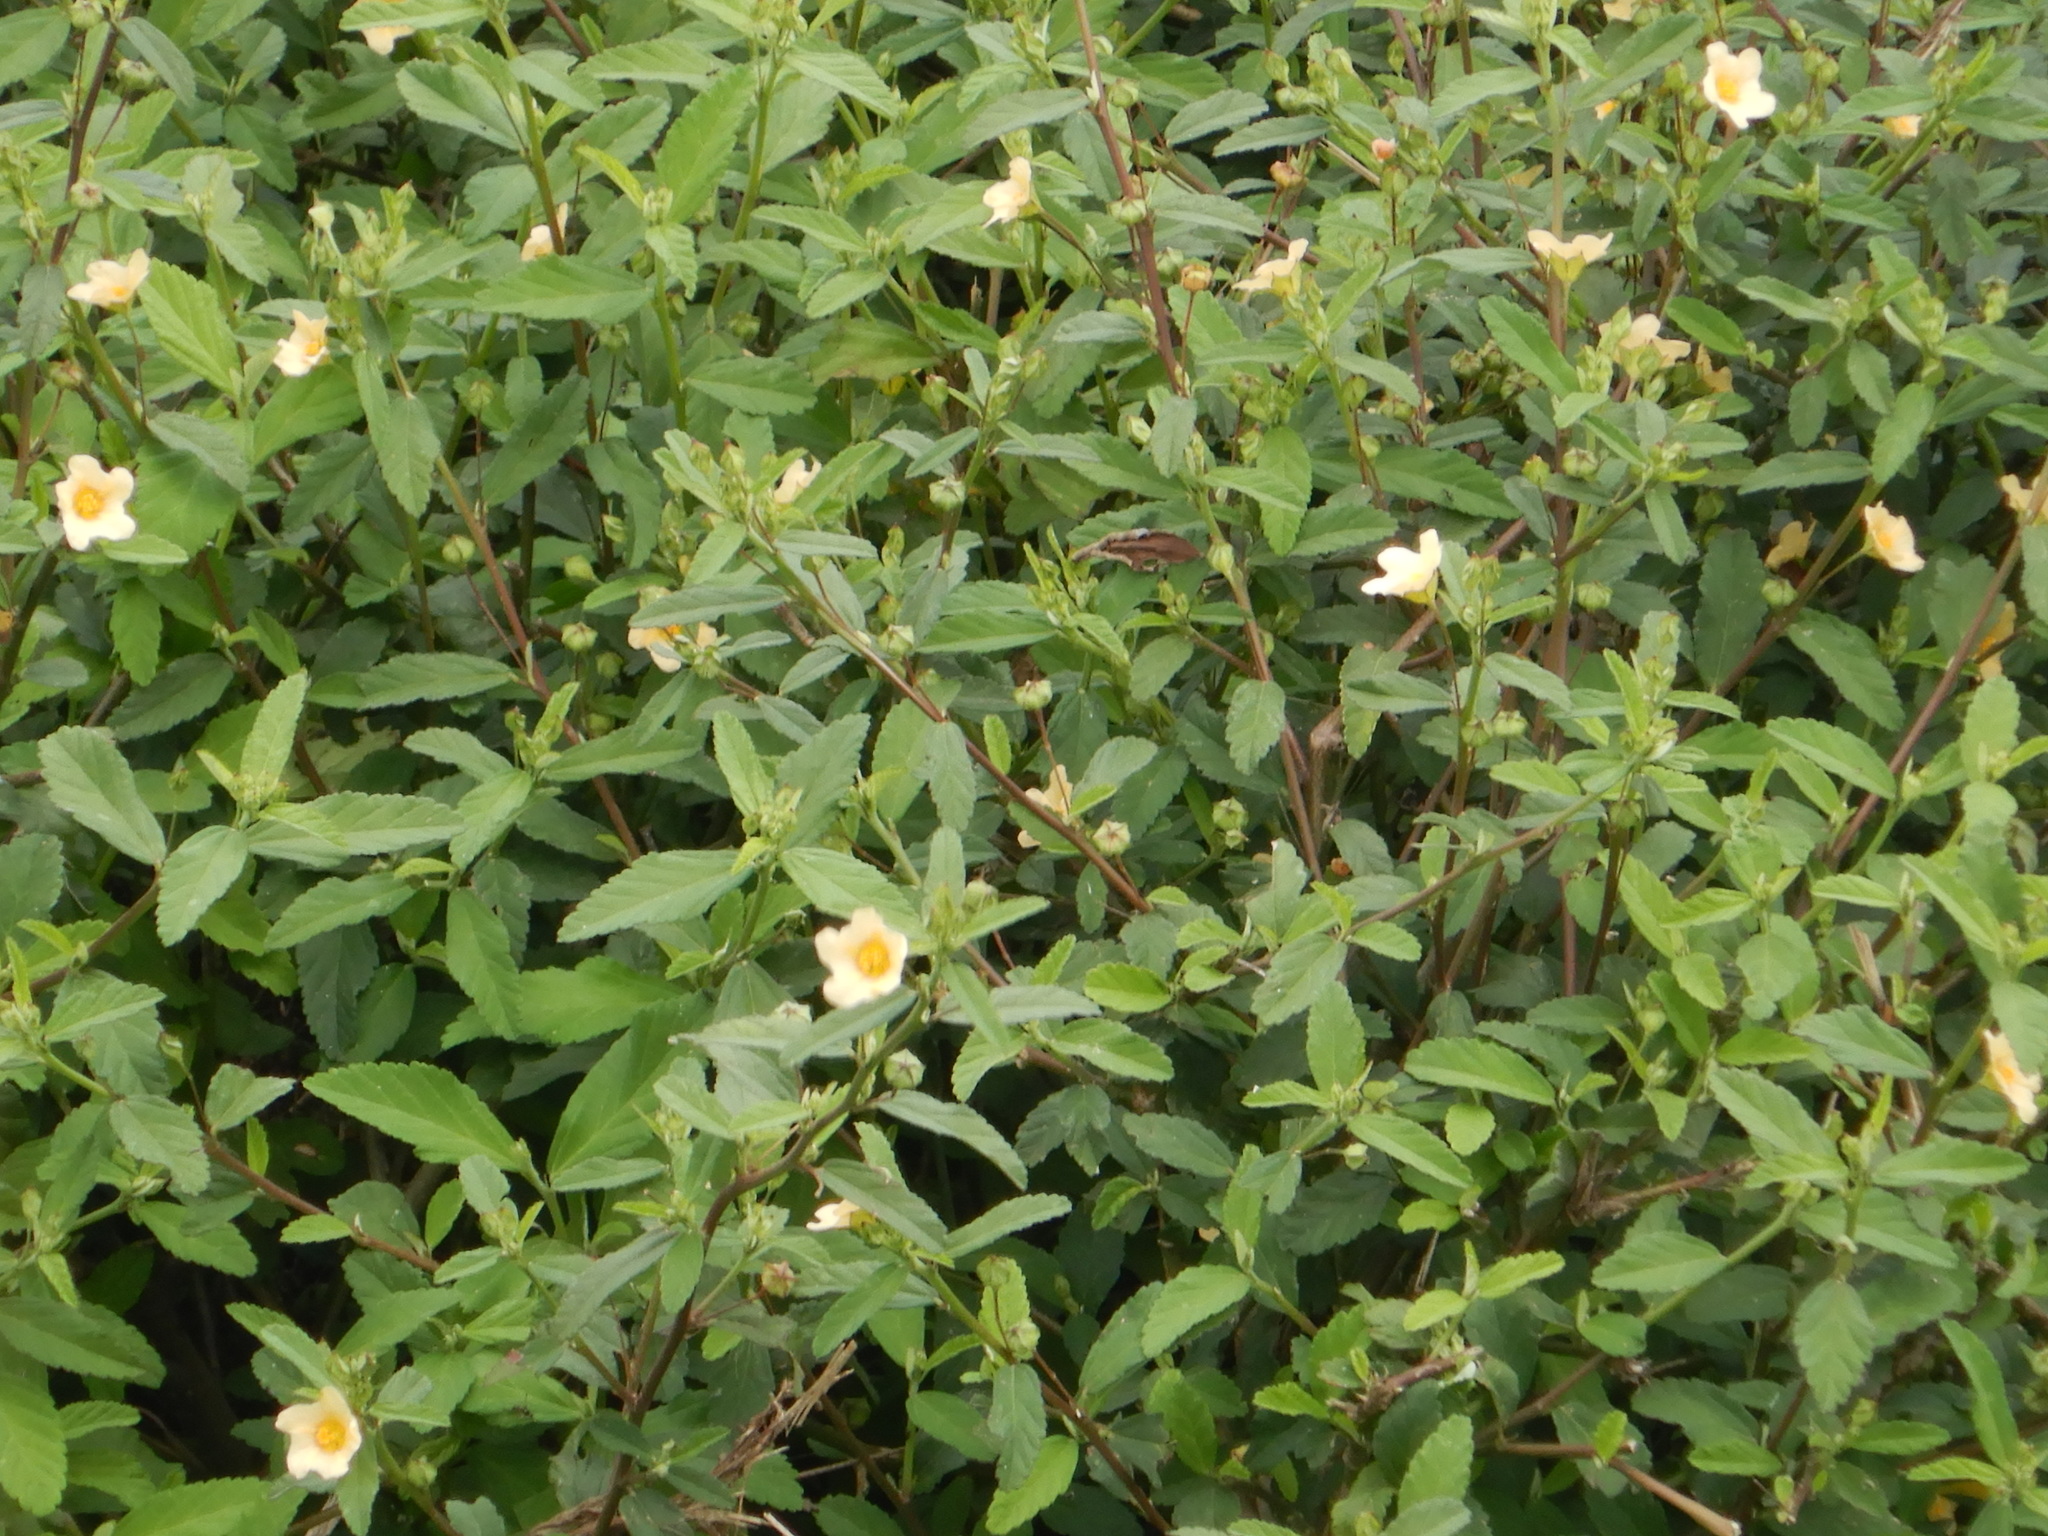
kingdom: Plantae
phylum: Tracheophyta
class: Magnoliopsida
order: Malvales
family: Malvaceae
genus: Sida
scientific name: Sida rhombifolia
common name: Queensland-hemp
